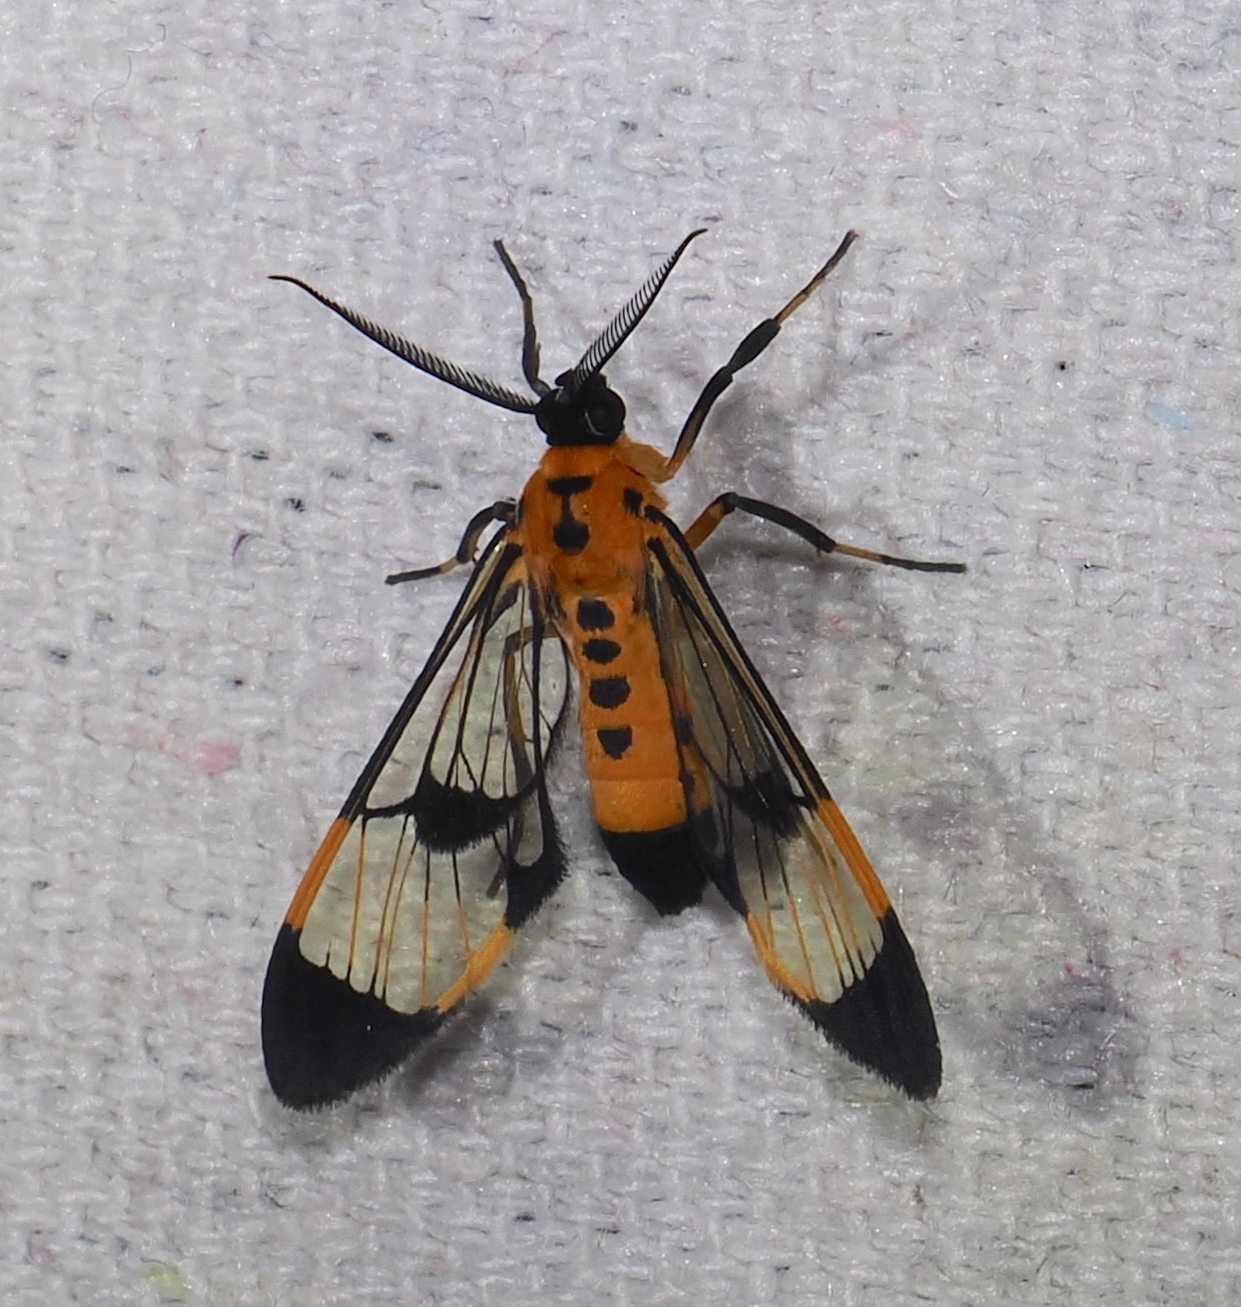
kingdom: Animalia
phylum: Arthropoda
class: Insecta
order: Lepidoptera
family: Erebidae
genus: Cosmosoma
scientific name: Cosmosoma stictinota
